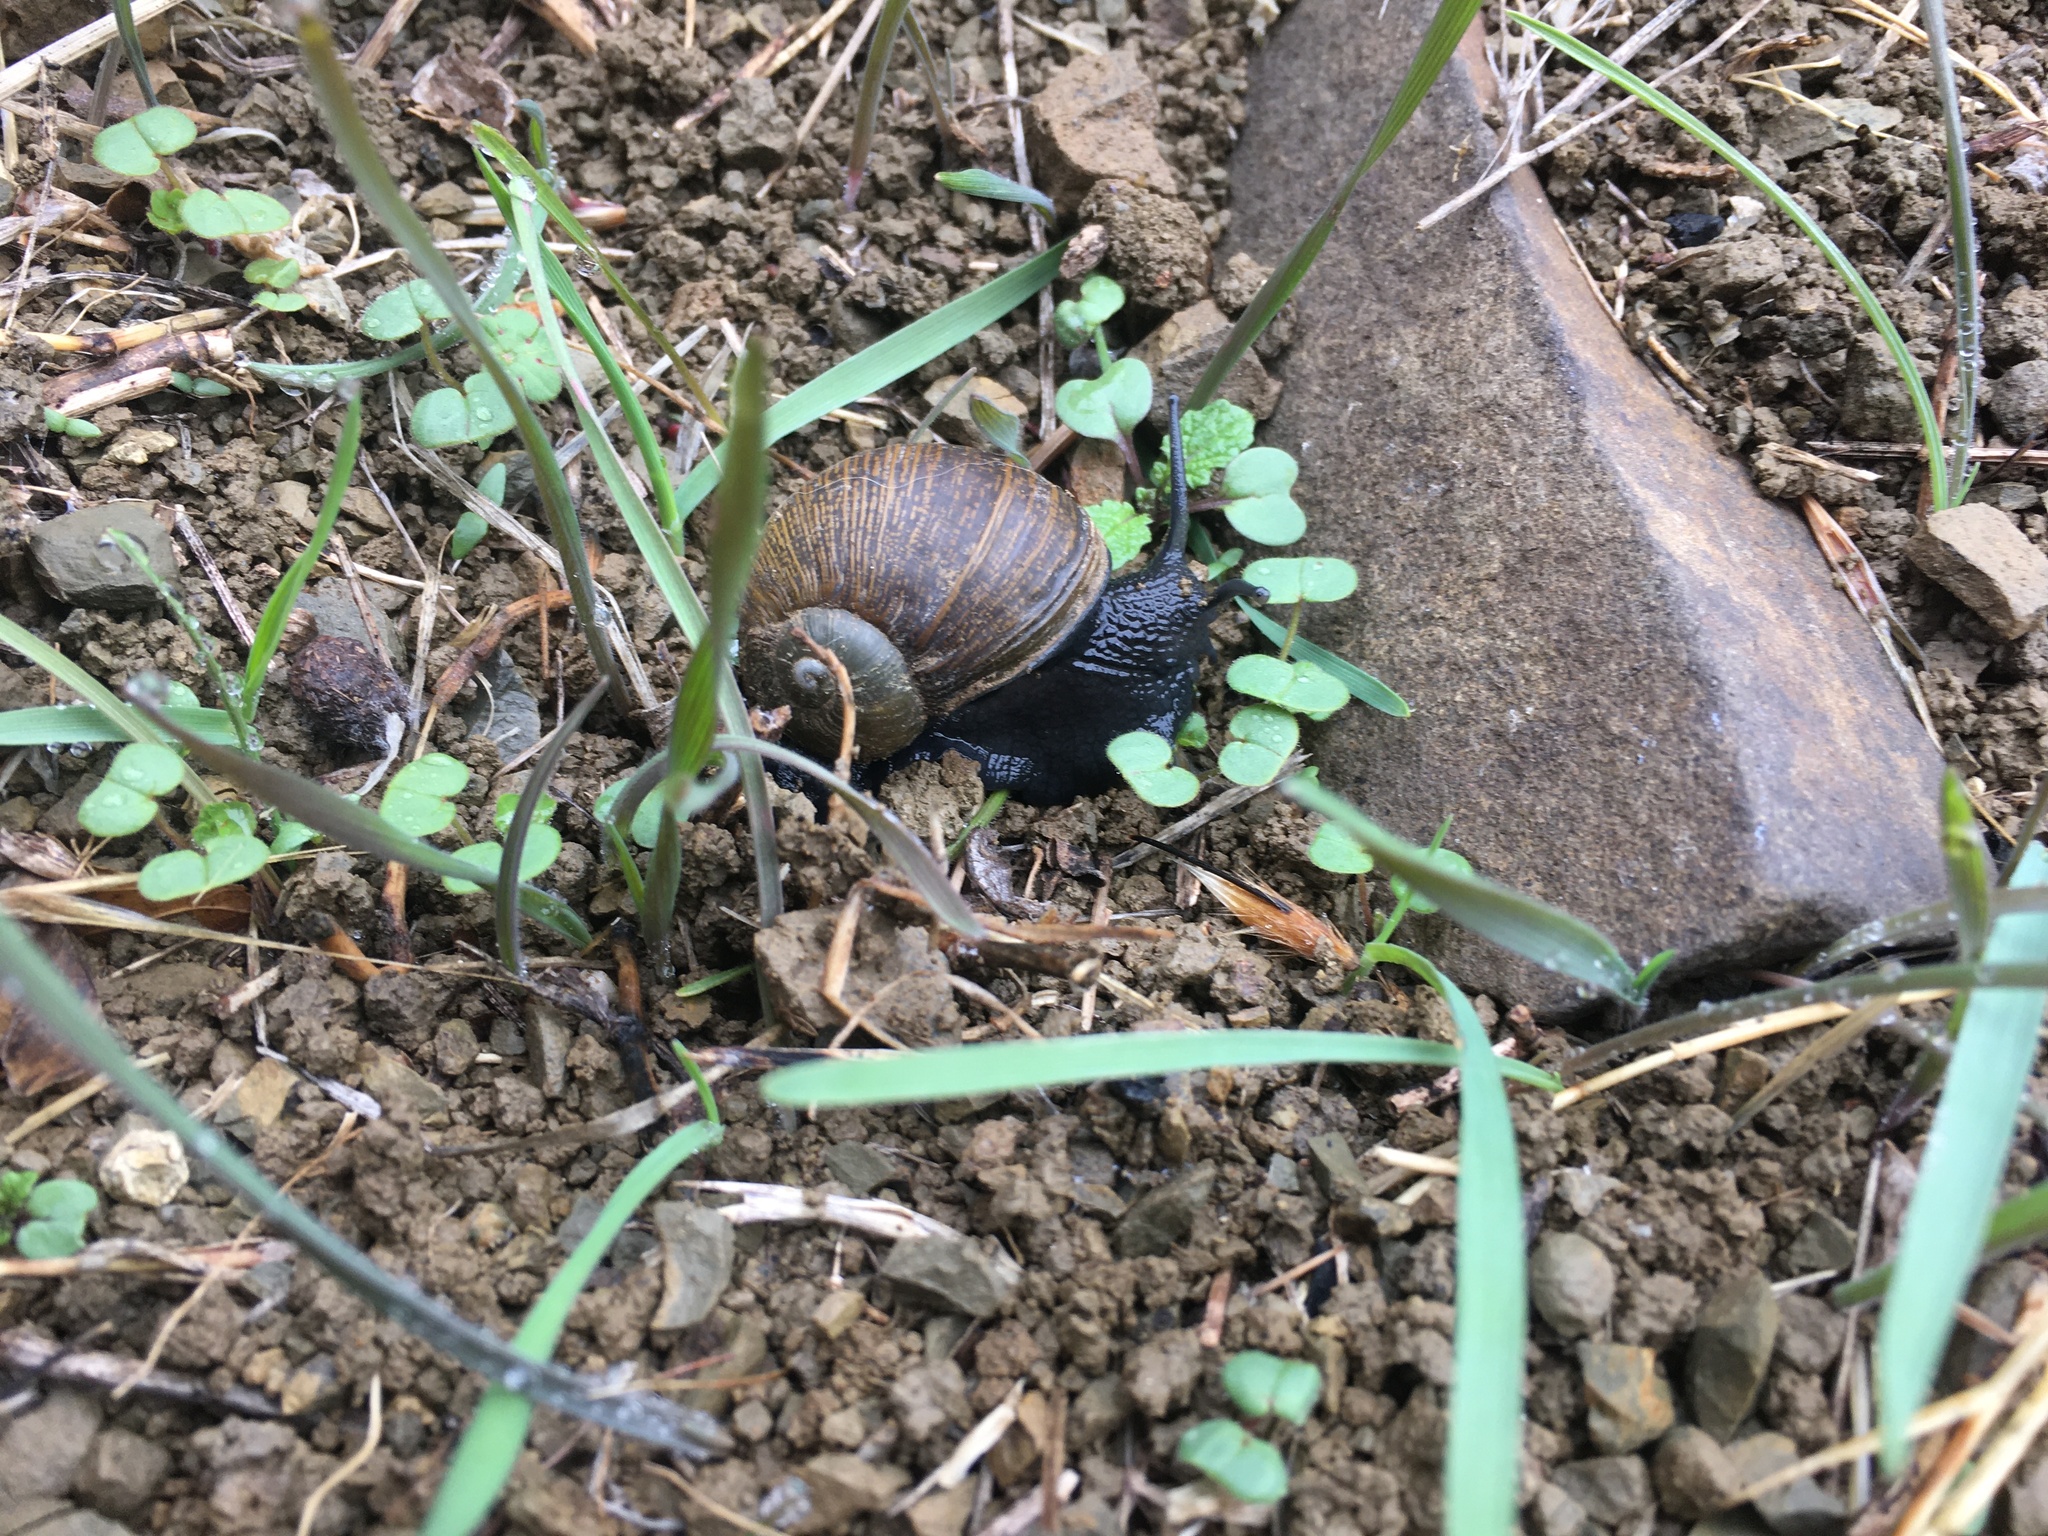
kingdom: Animalia
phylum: Mollusca
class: Gastropoda
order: Stylommatophora
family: Helicidae
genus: Cantareus
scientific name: Cantareus apertus
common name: Green gardensnail
